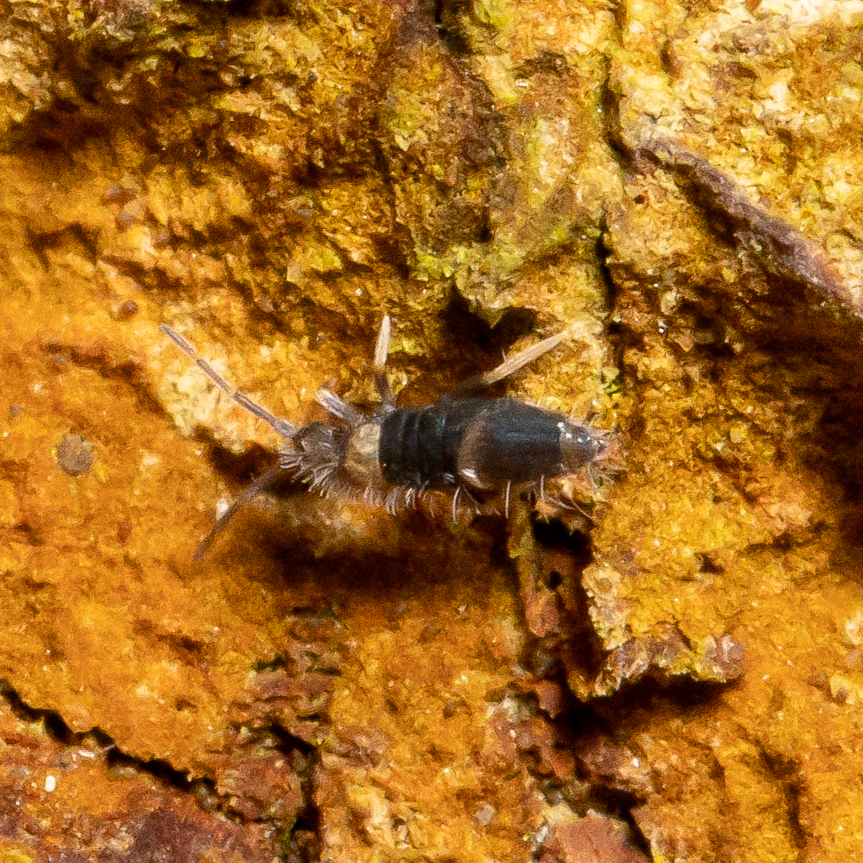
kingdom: Animalia
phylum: Arthropoda
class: Collembola
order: Entomobryomorpha
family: Entomobryidae
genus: Entomobrya
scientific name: Entomobrya albocincta
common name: Springtail
